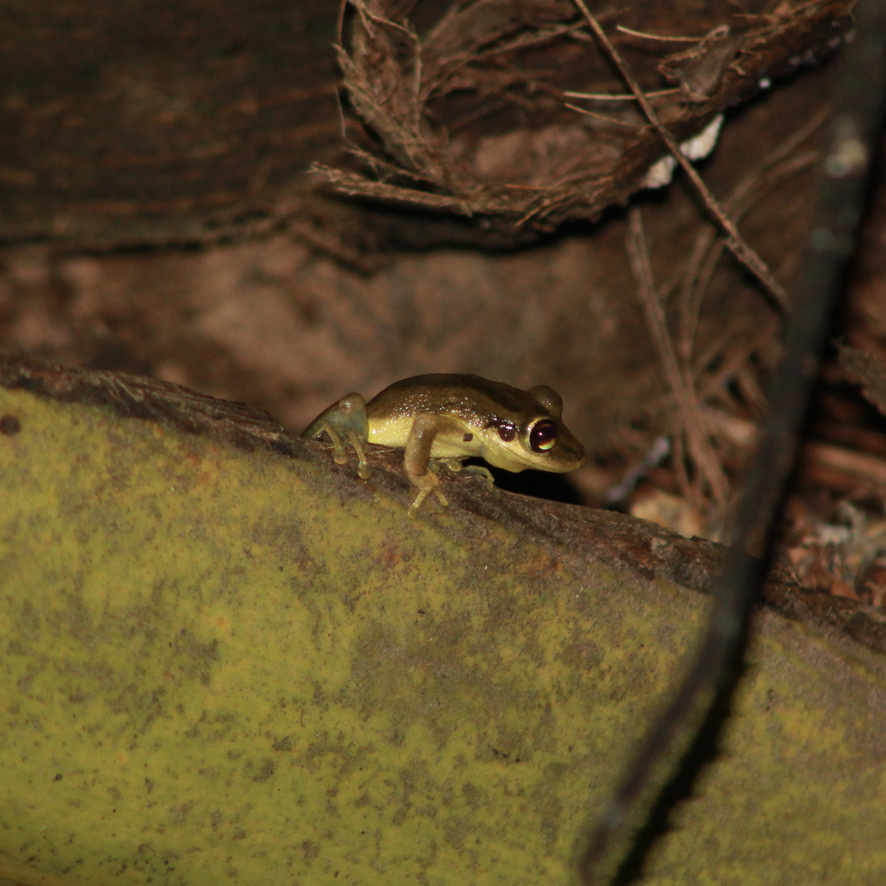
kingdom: Animalia
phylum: Chordata
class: Amphibia
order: Anura
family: Hylidae
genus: Scinax
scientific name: Scinax ruber
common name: Red snouted treefrog
